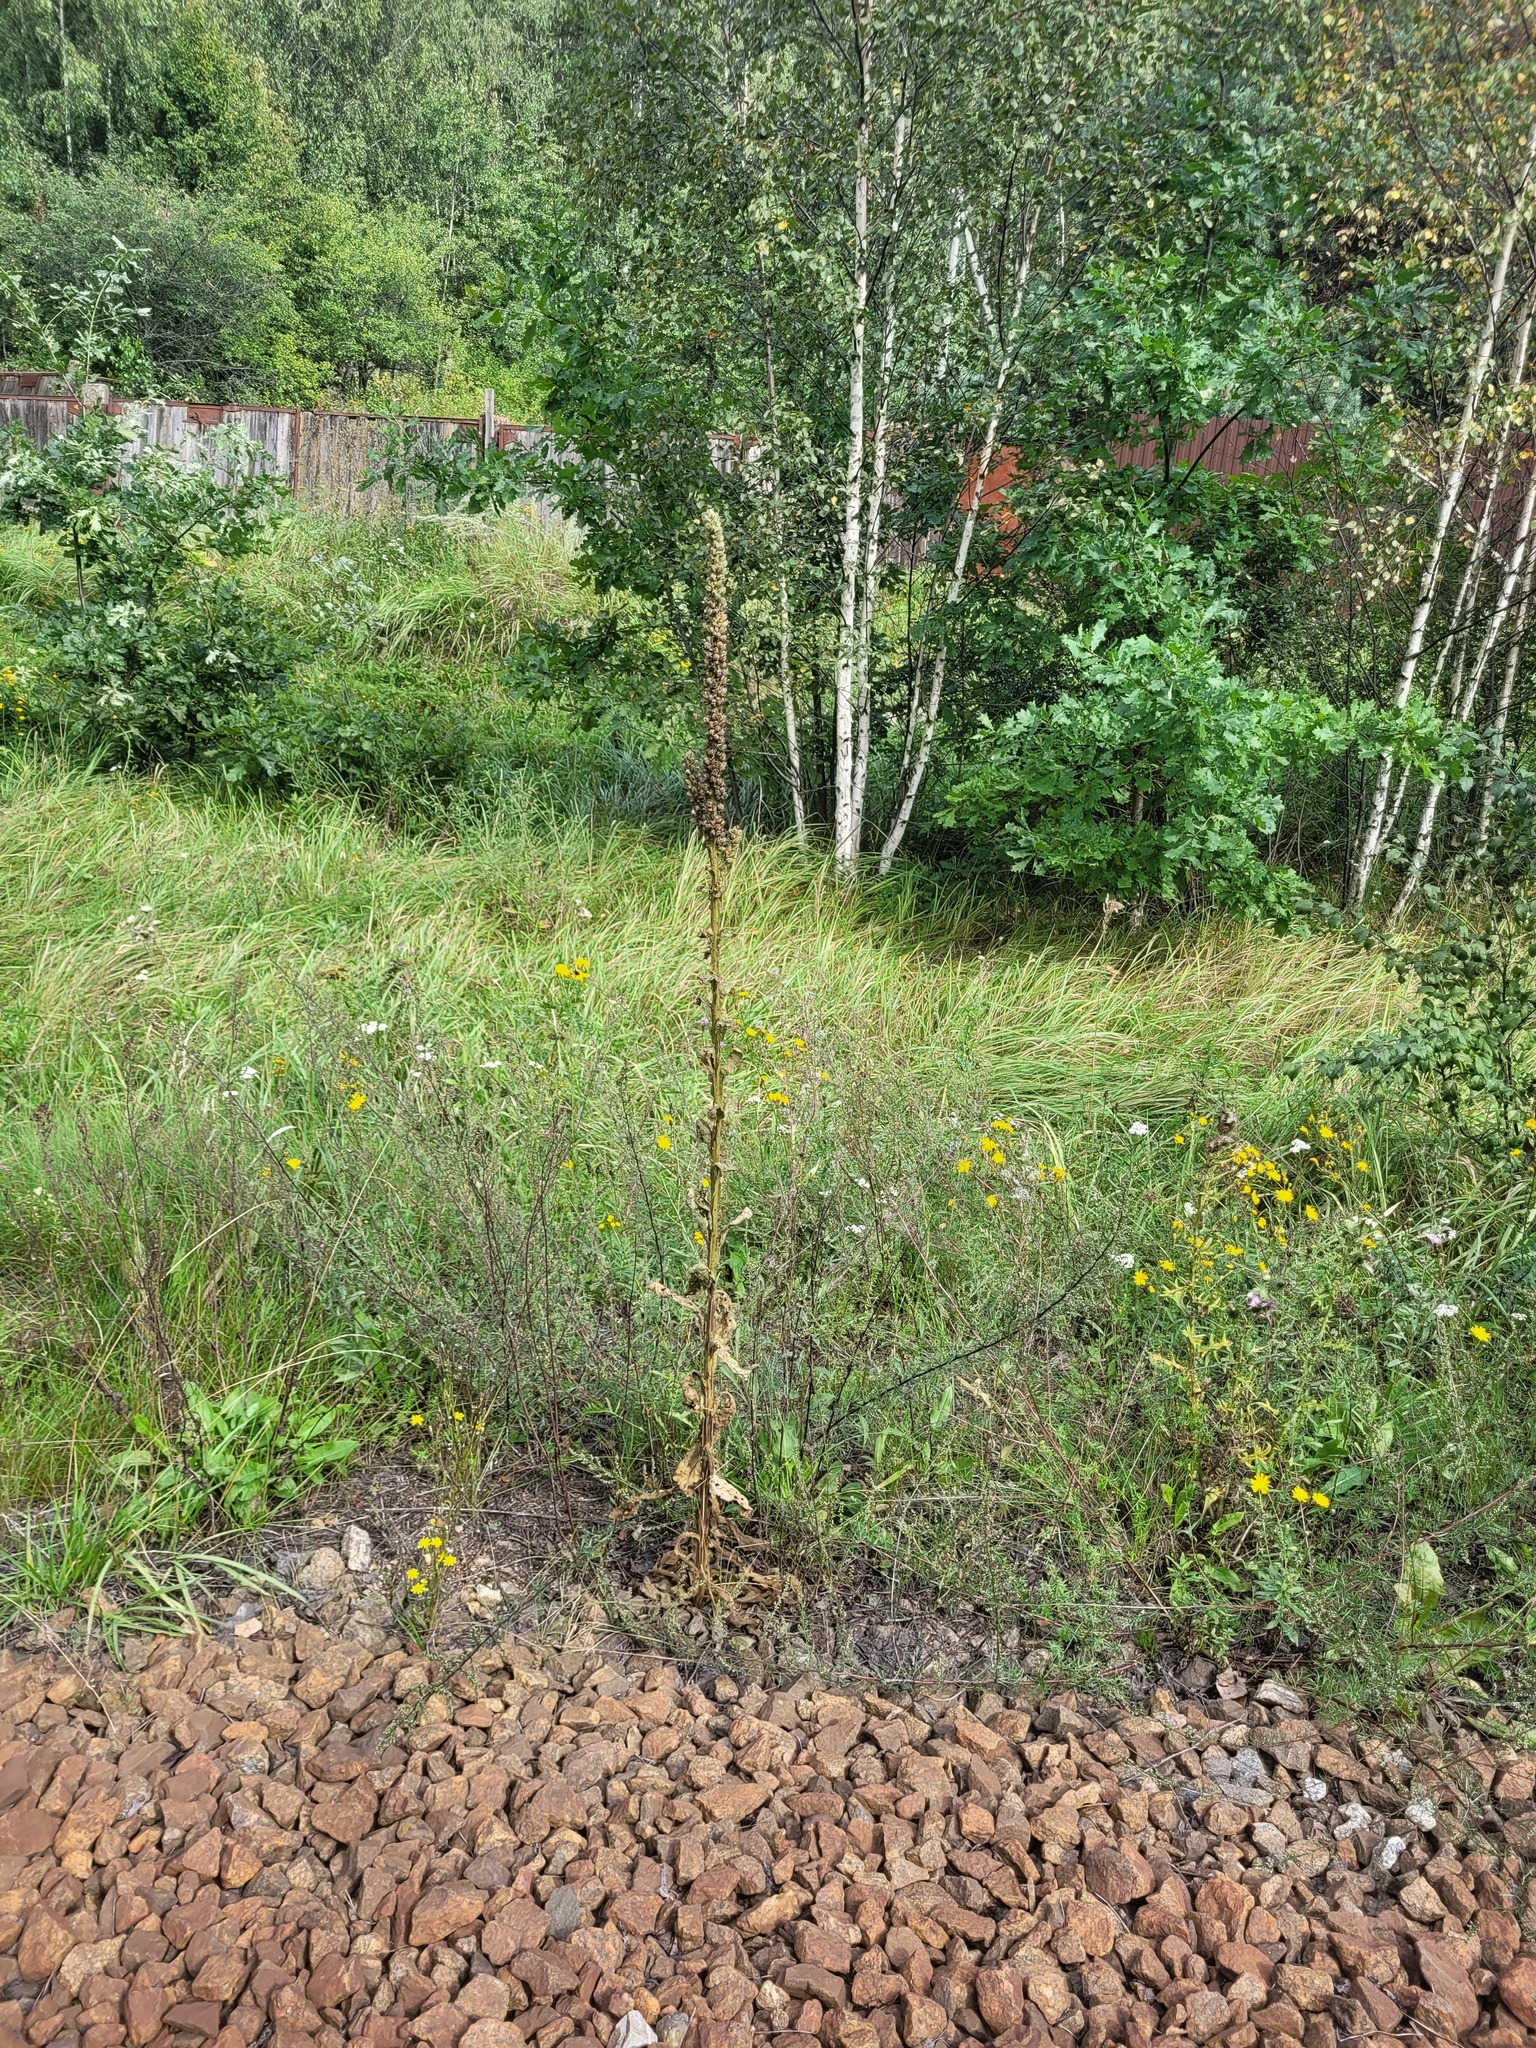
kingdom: Plantae
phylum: Tracheophyta
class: Magnoliopsida
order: Lamiales
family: Scrophulariaceae
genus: Verbascum
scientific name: Verbascum thapsus
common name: Common mullein
